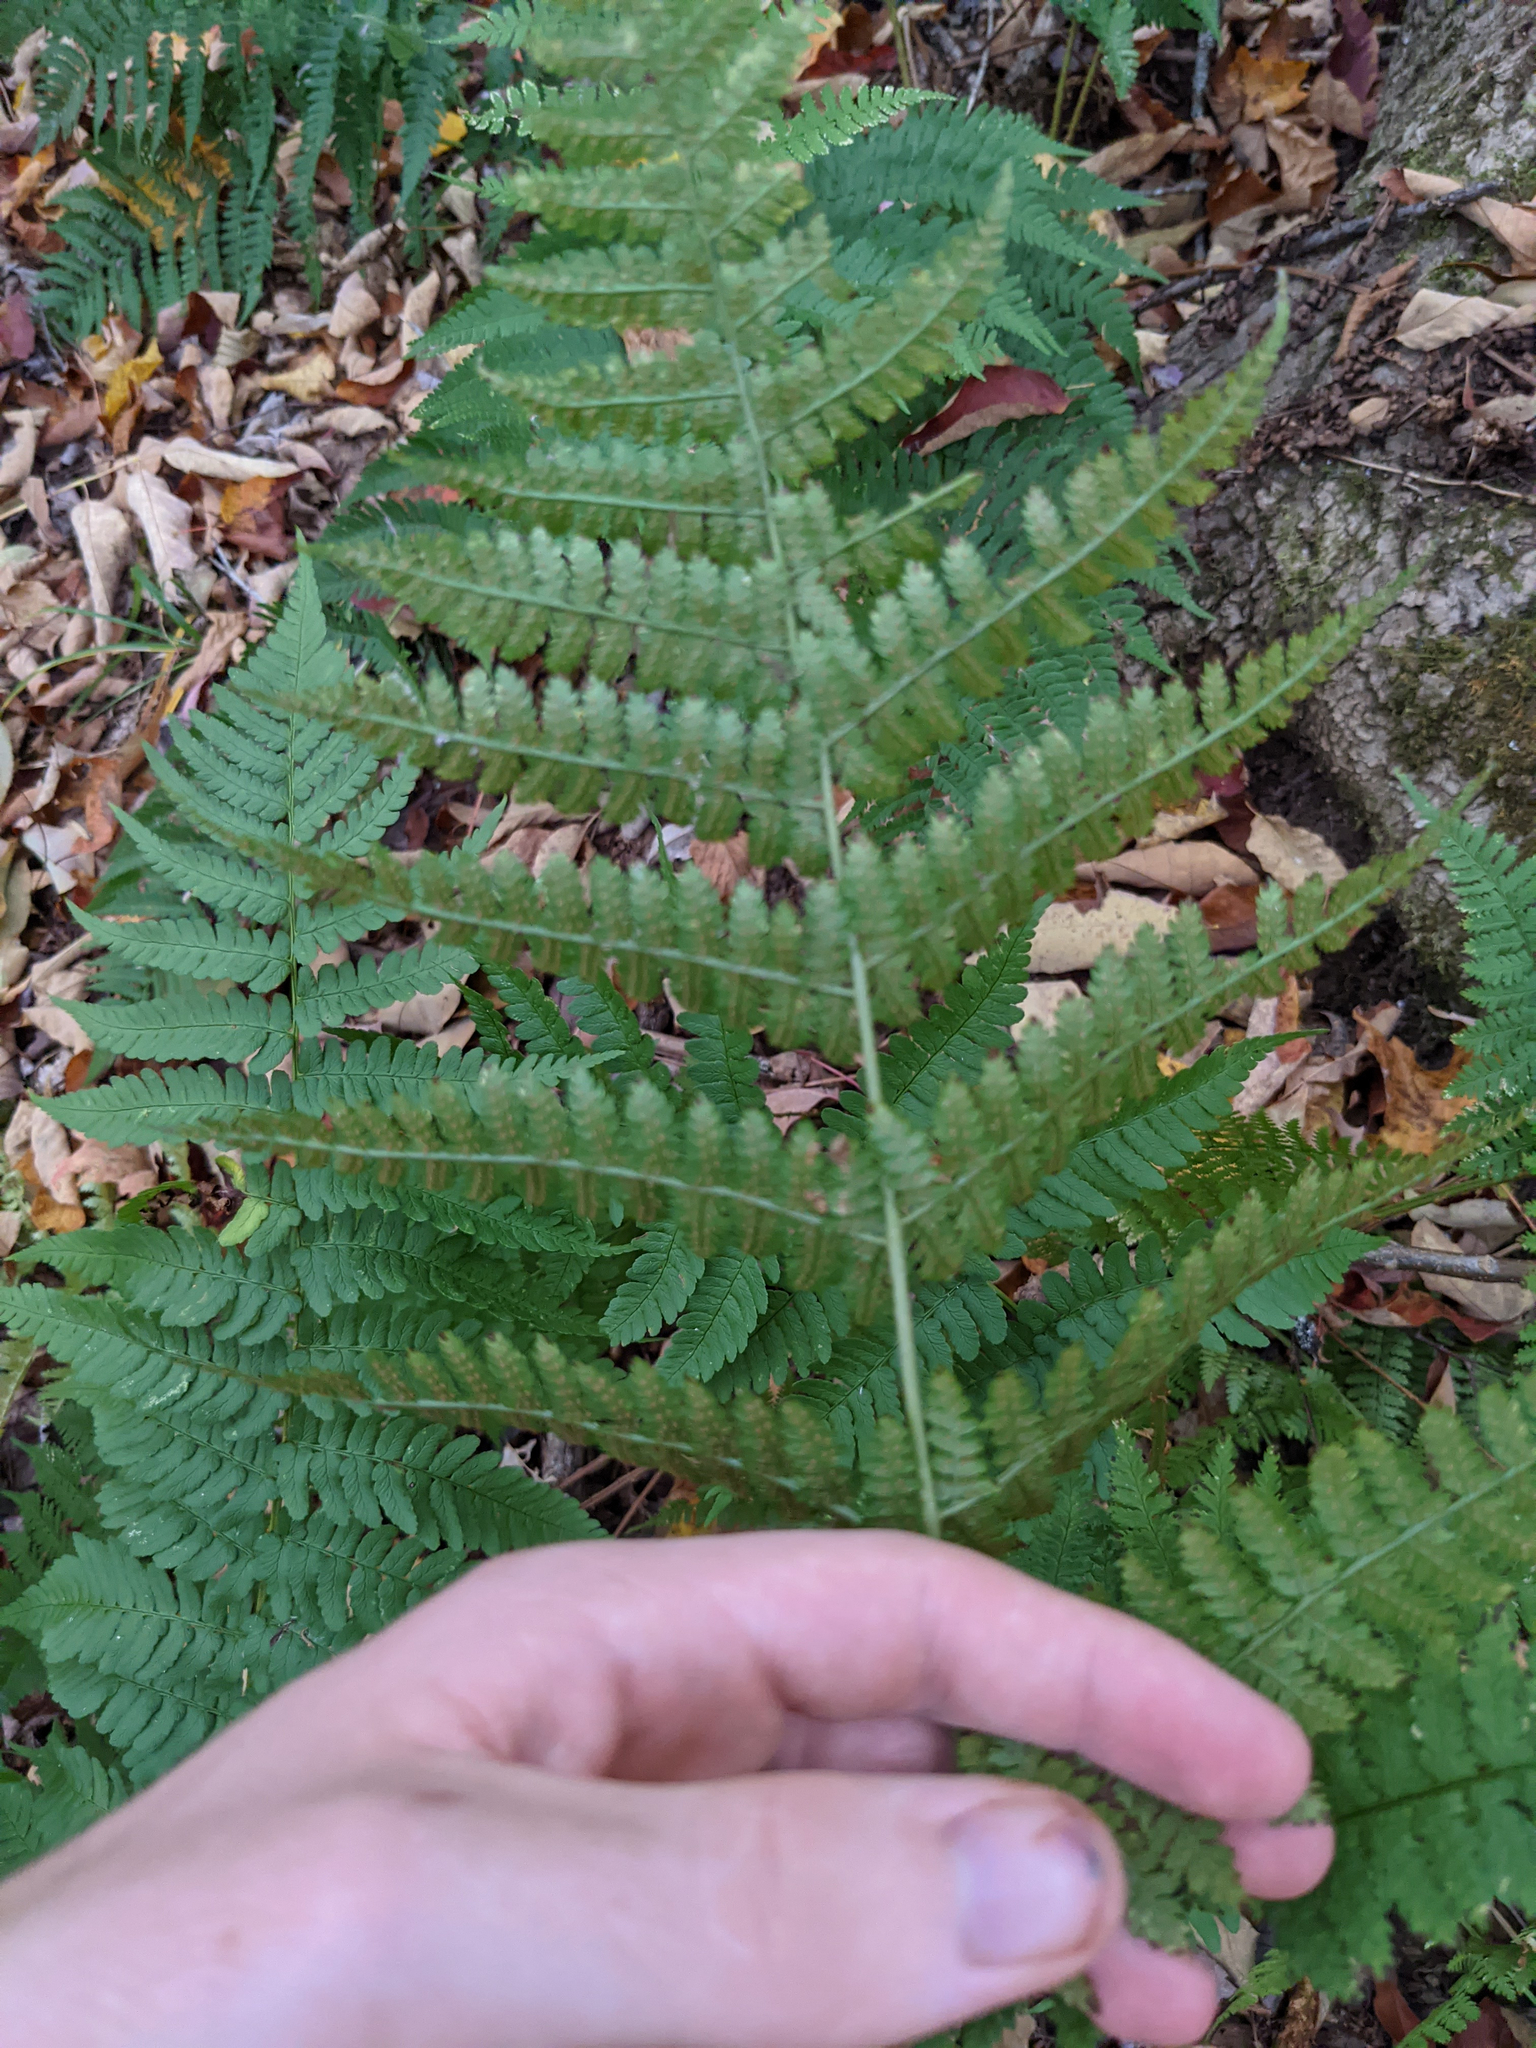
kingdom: Plantae
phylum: Tracheophyta
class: Polypodiopsida
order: Polypodiales
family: Dryopteridaceae
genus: Dryopteris
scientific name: Dryopteris intermedia
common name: Evergreen wood fern
